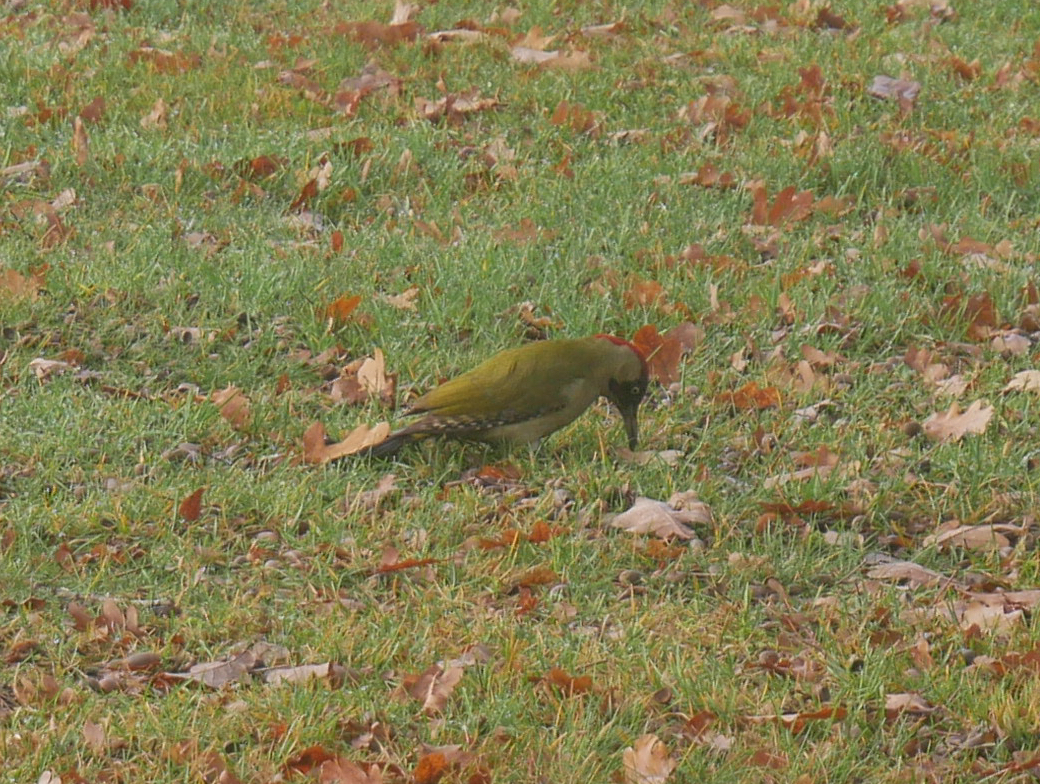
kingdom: Animalia
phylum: Chordata
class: Aves
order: Piciformes
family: Picidae
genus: Picus
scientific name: Picus viridis
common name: European green woodpecker
